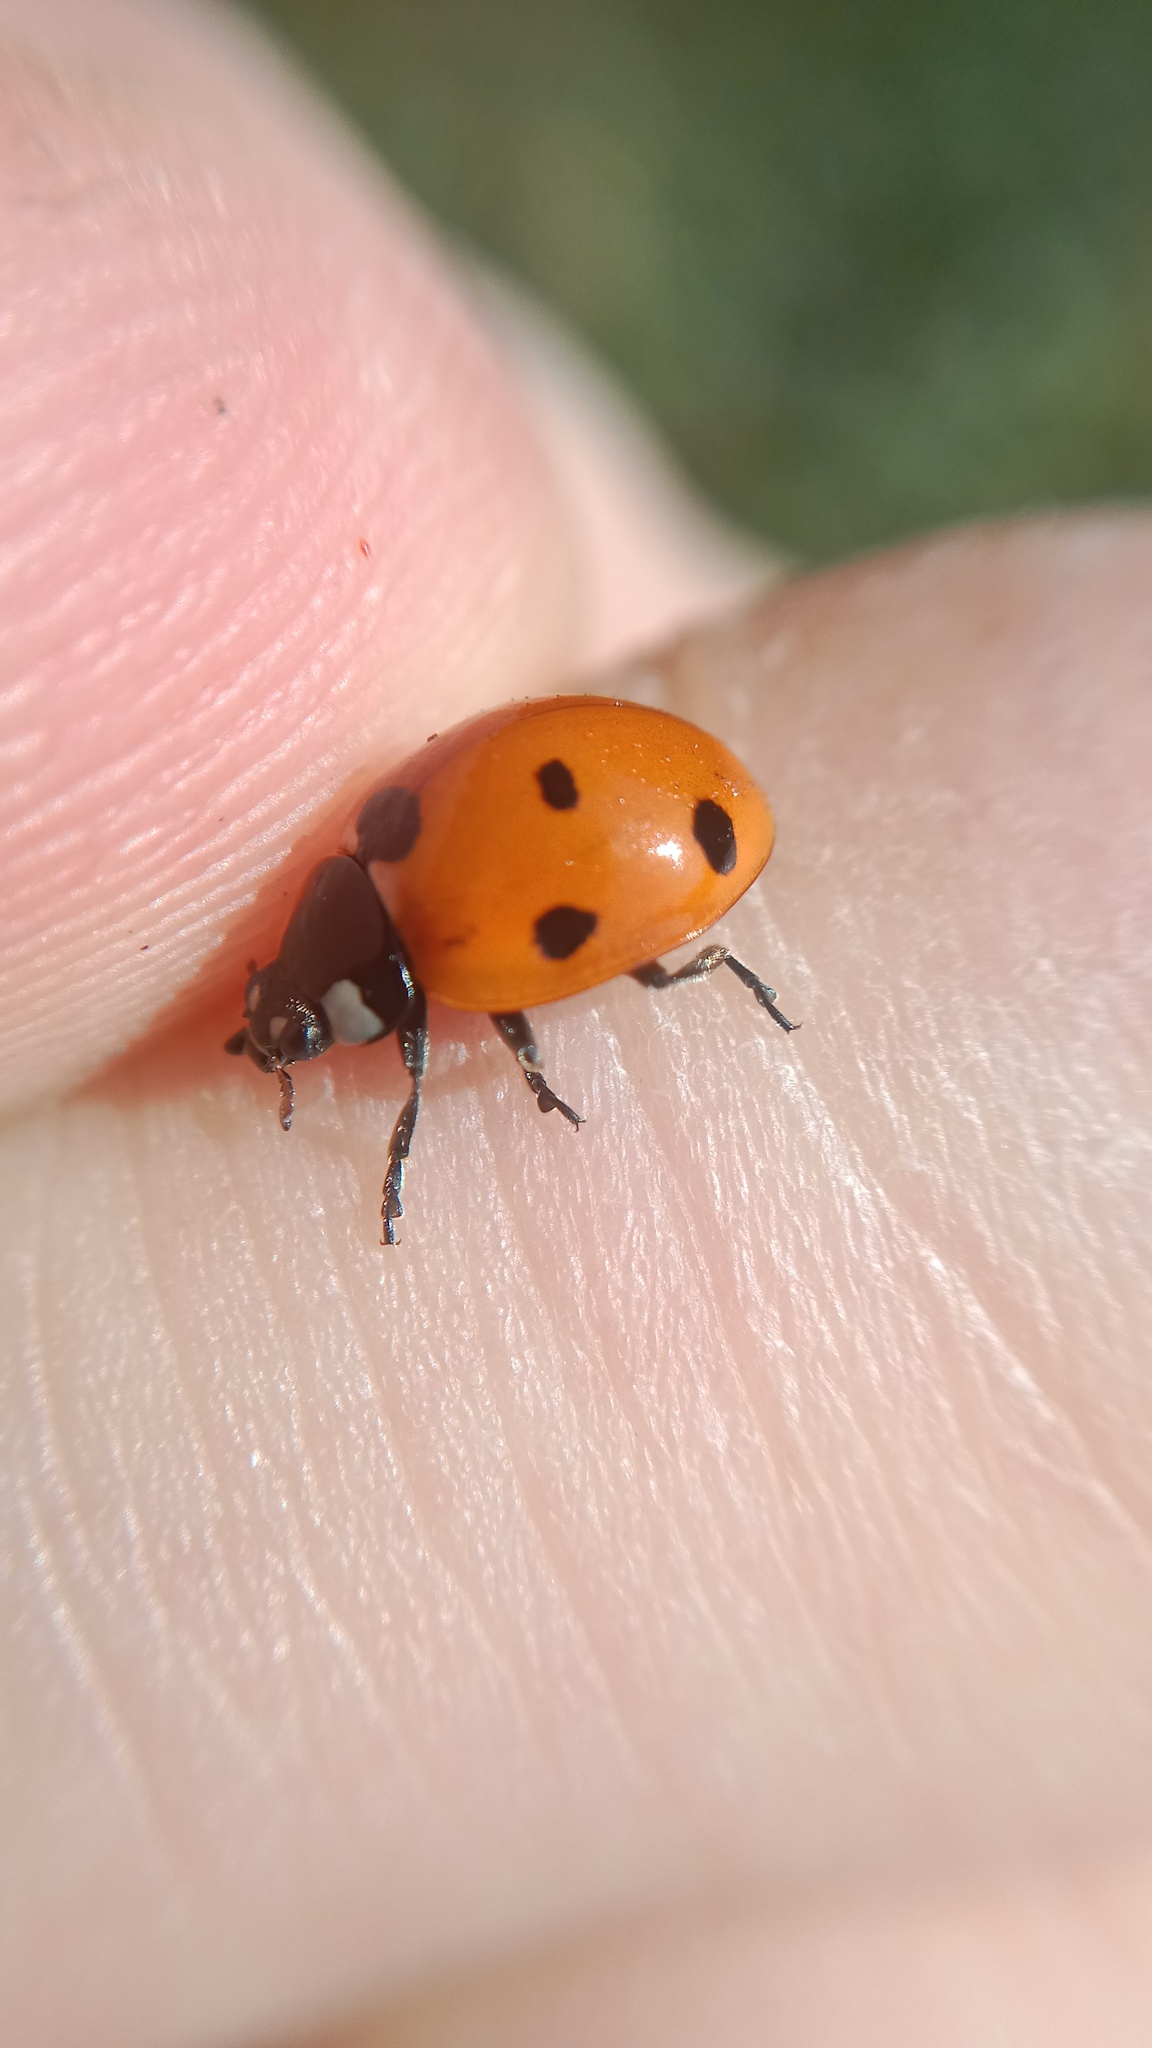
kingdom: Animalia
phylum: Arthropoda
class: Insecta
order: Coleoptera
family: Coccinellidae
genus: Coccinella
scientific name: Coccinella septempunctata
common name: Sevenspotted lady beetle
